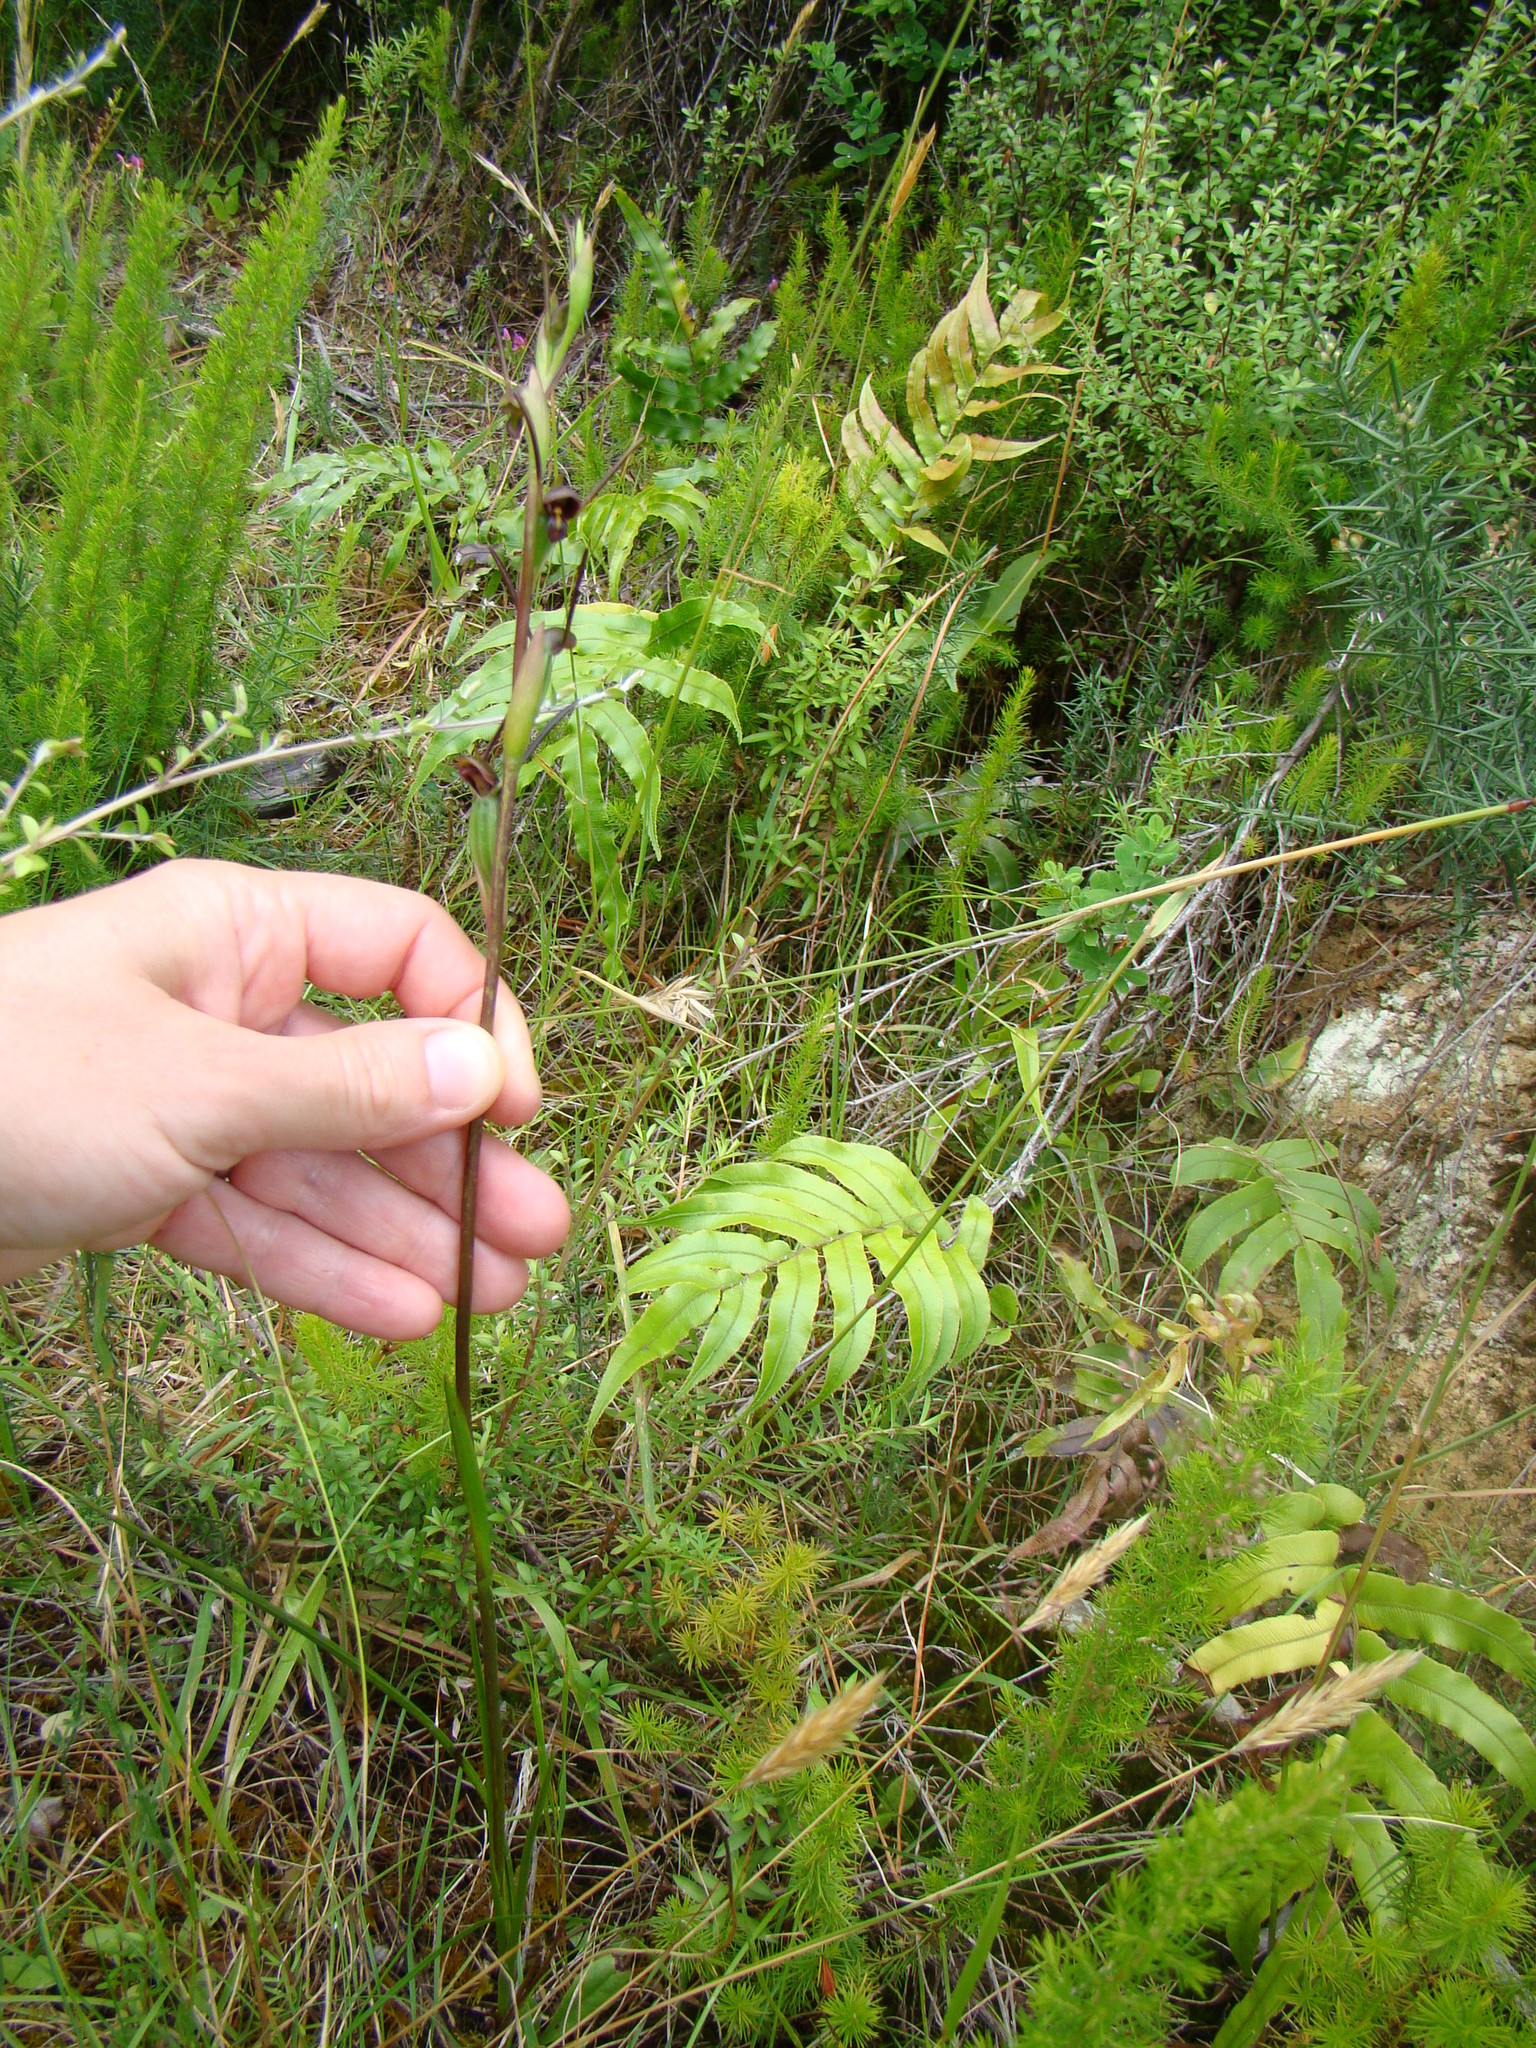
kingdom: Plantae
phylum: Tracheophyta
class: Liliopsida
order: Asparagales
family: Orchidaceae
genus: Orthoceras
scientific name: Orthoceras novae-zeelandiae
